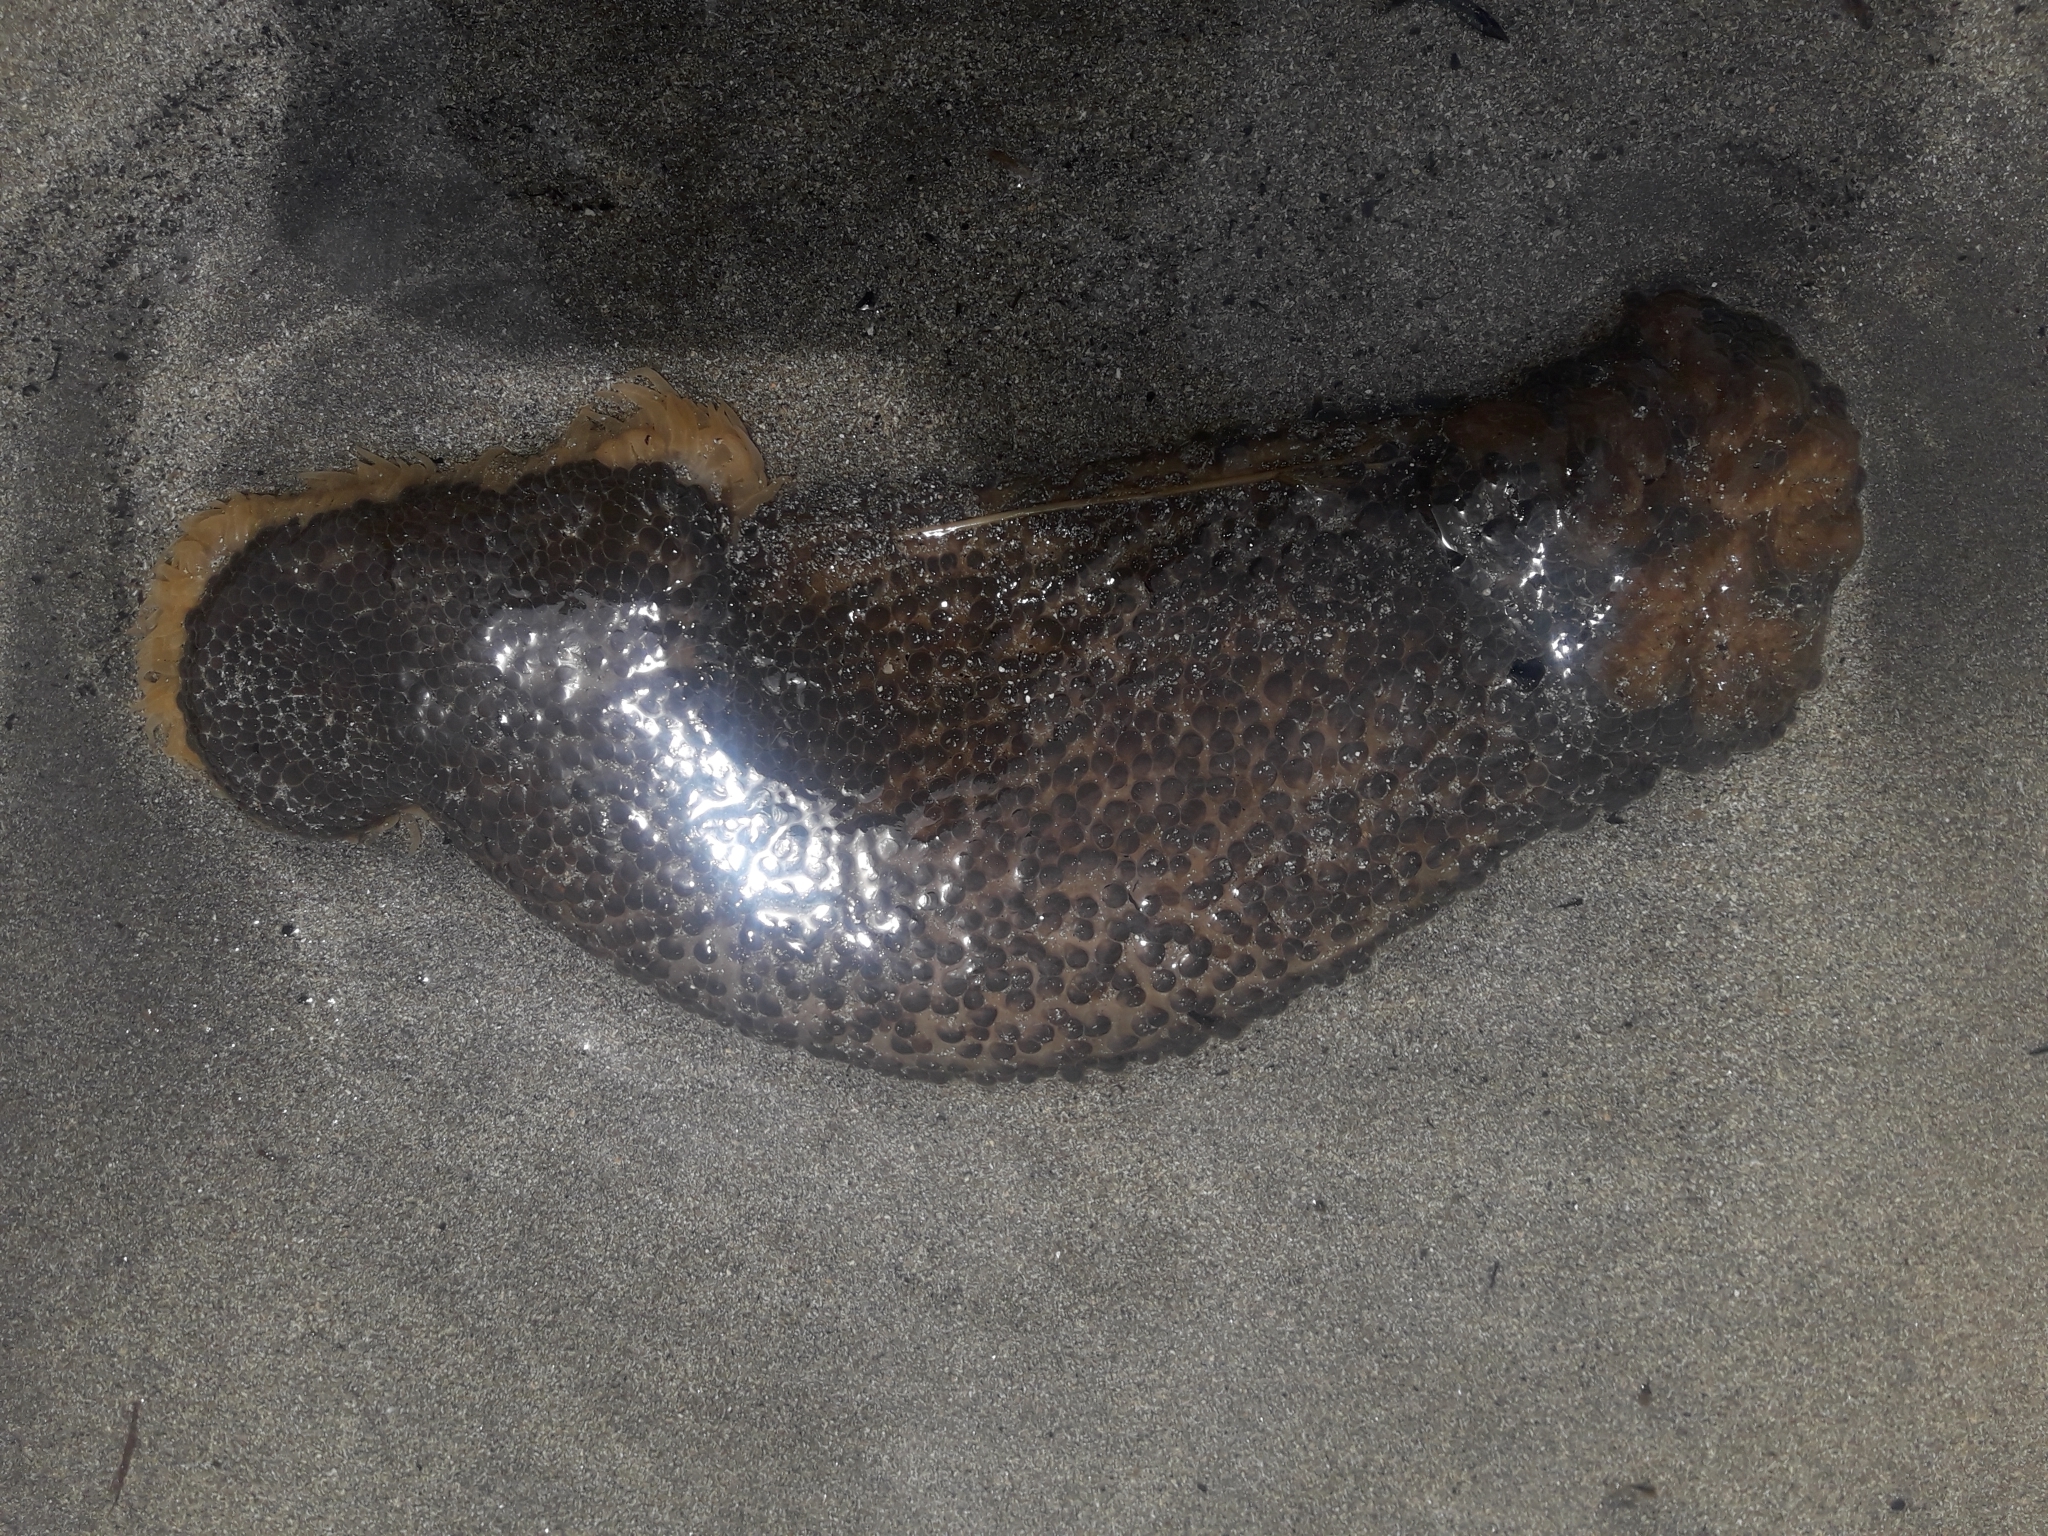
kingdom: Animalia
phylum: Cnidaria
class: Anthozoa
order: Actiniaria
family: Actiniidae
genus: Phlyctenactis
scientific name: Phlyctenactis tuberculosa
